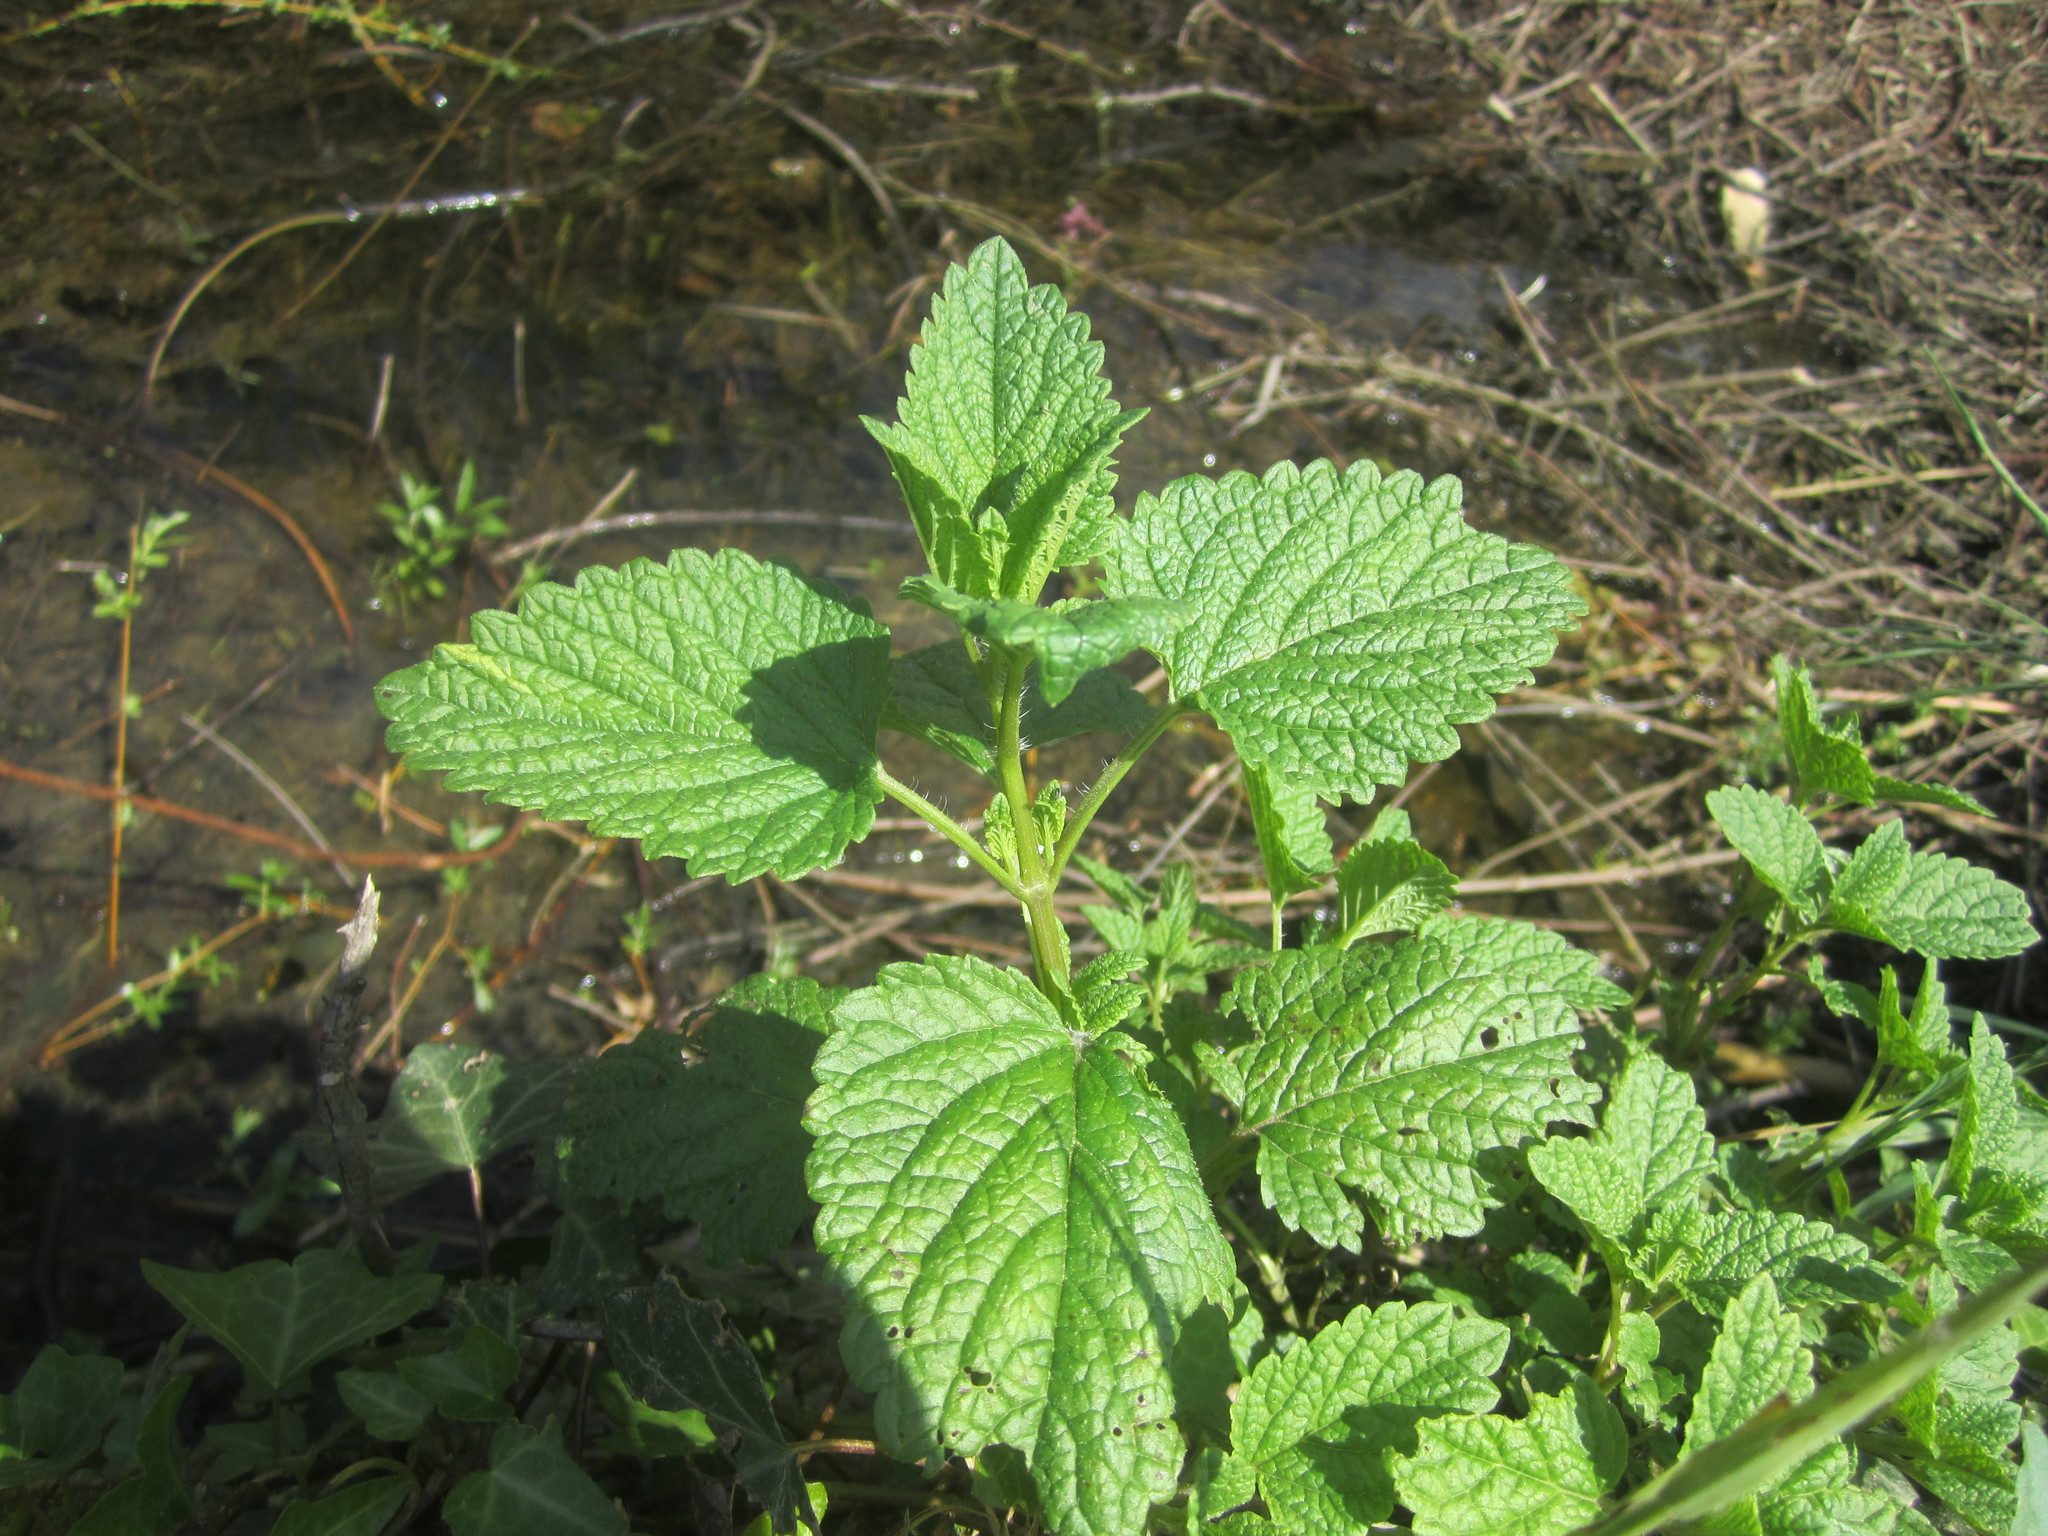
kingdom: Plantae
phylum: Tracheophyta
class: Magnoliopsida
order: Lamiales
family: Lamiaceae
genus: Melissa
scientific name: Melissa officinalis
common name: Balm
